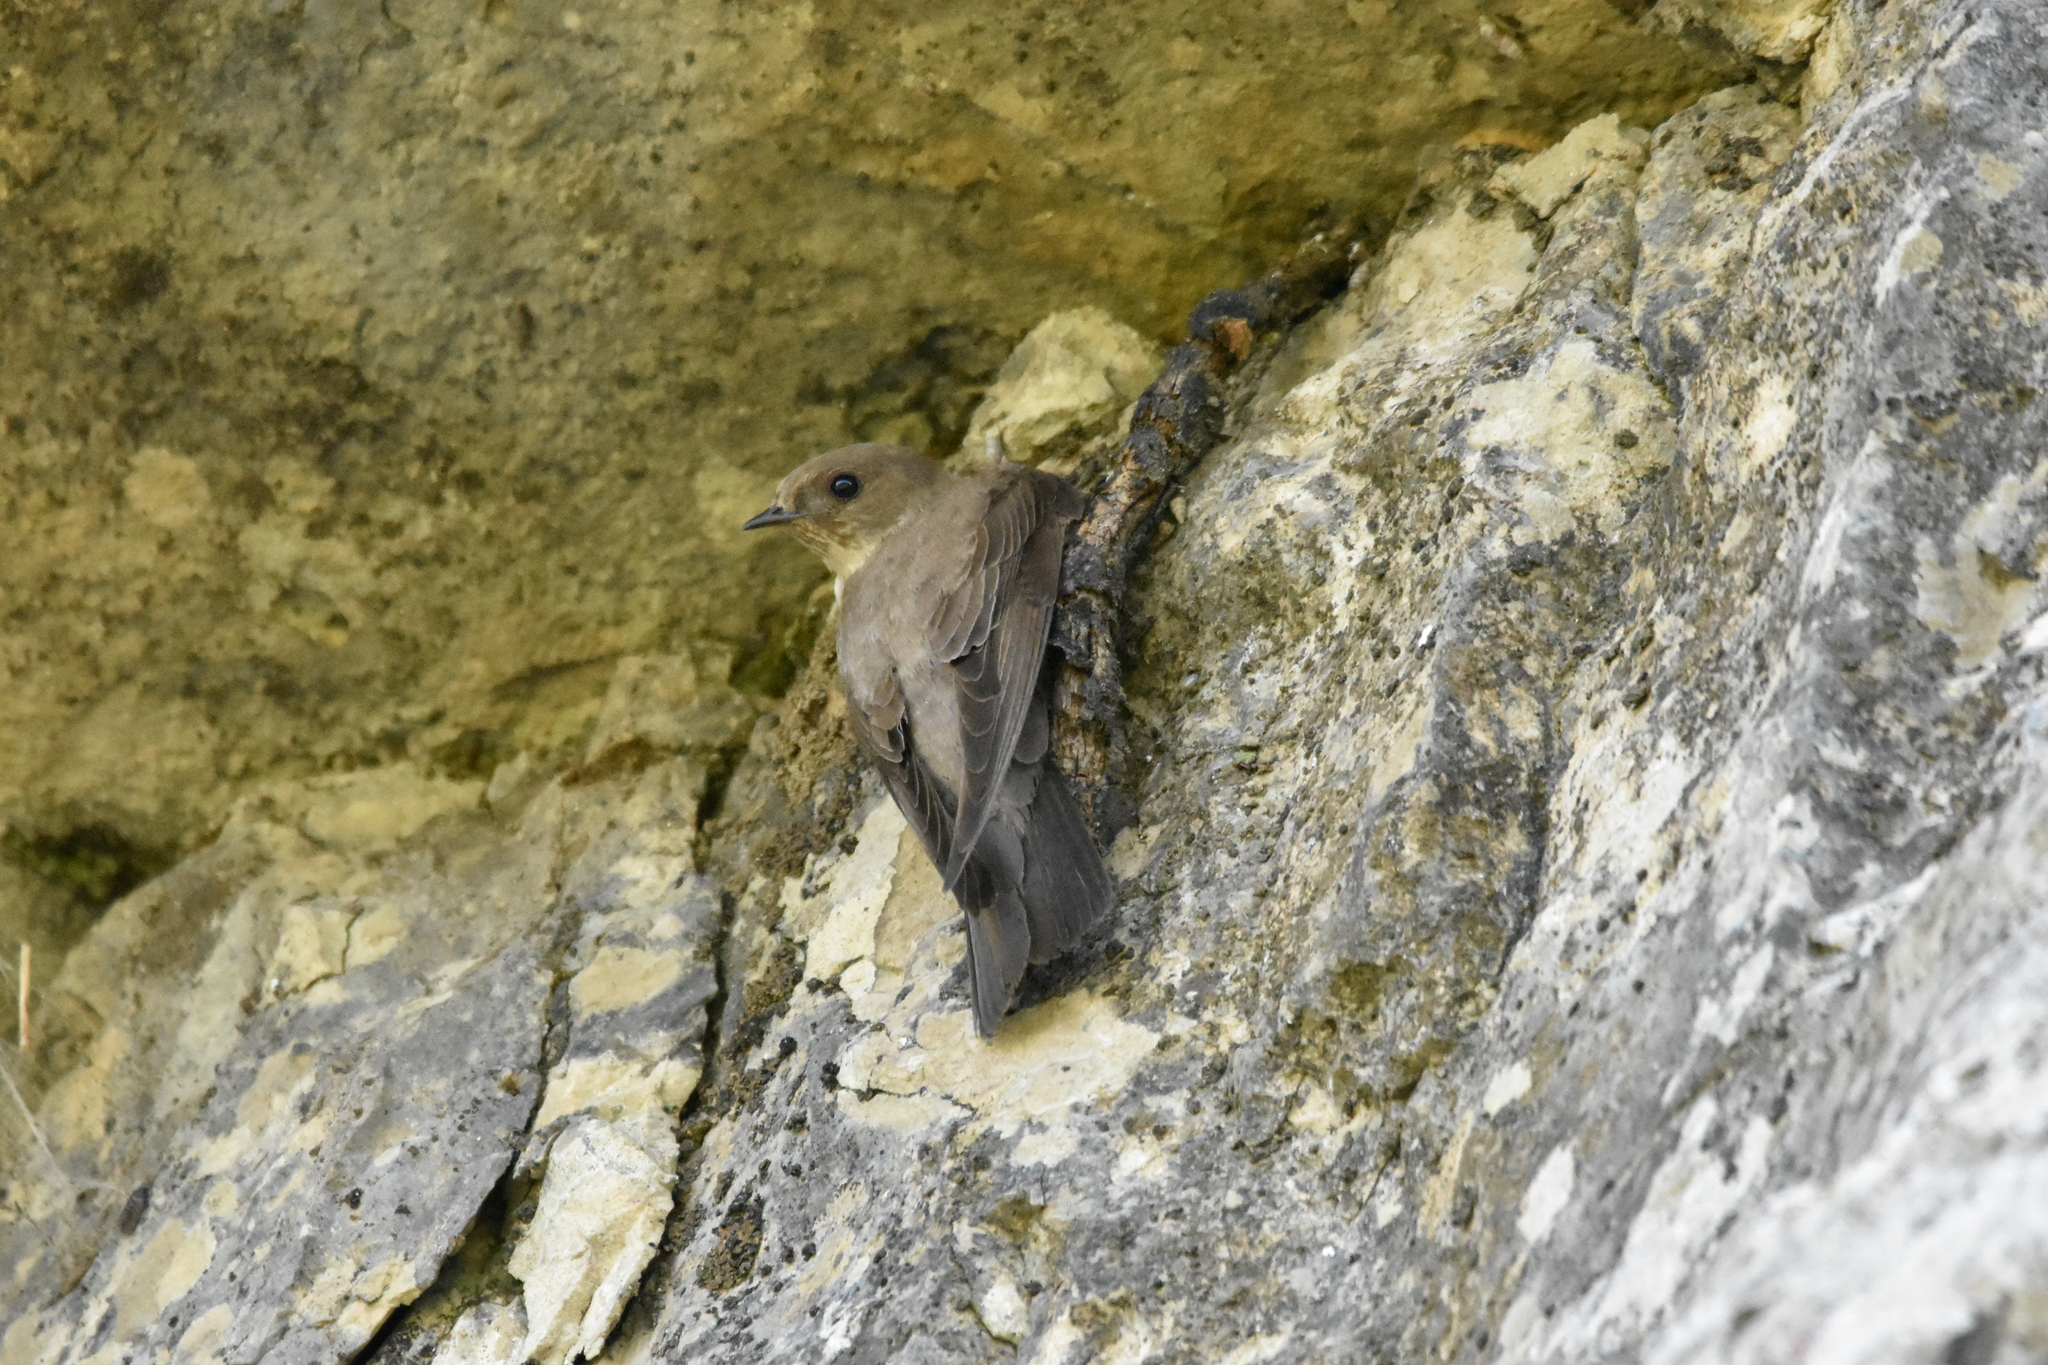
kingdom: Animalia
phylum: Chordata
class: Aves
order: Passeriformes
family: Hirundinidae
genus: Ptyonoprogne
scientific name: Ptyonoprogne rupestris
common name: Eurasian crag martin
